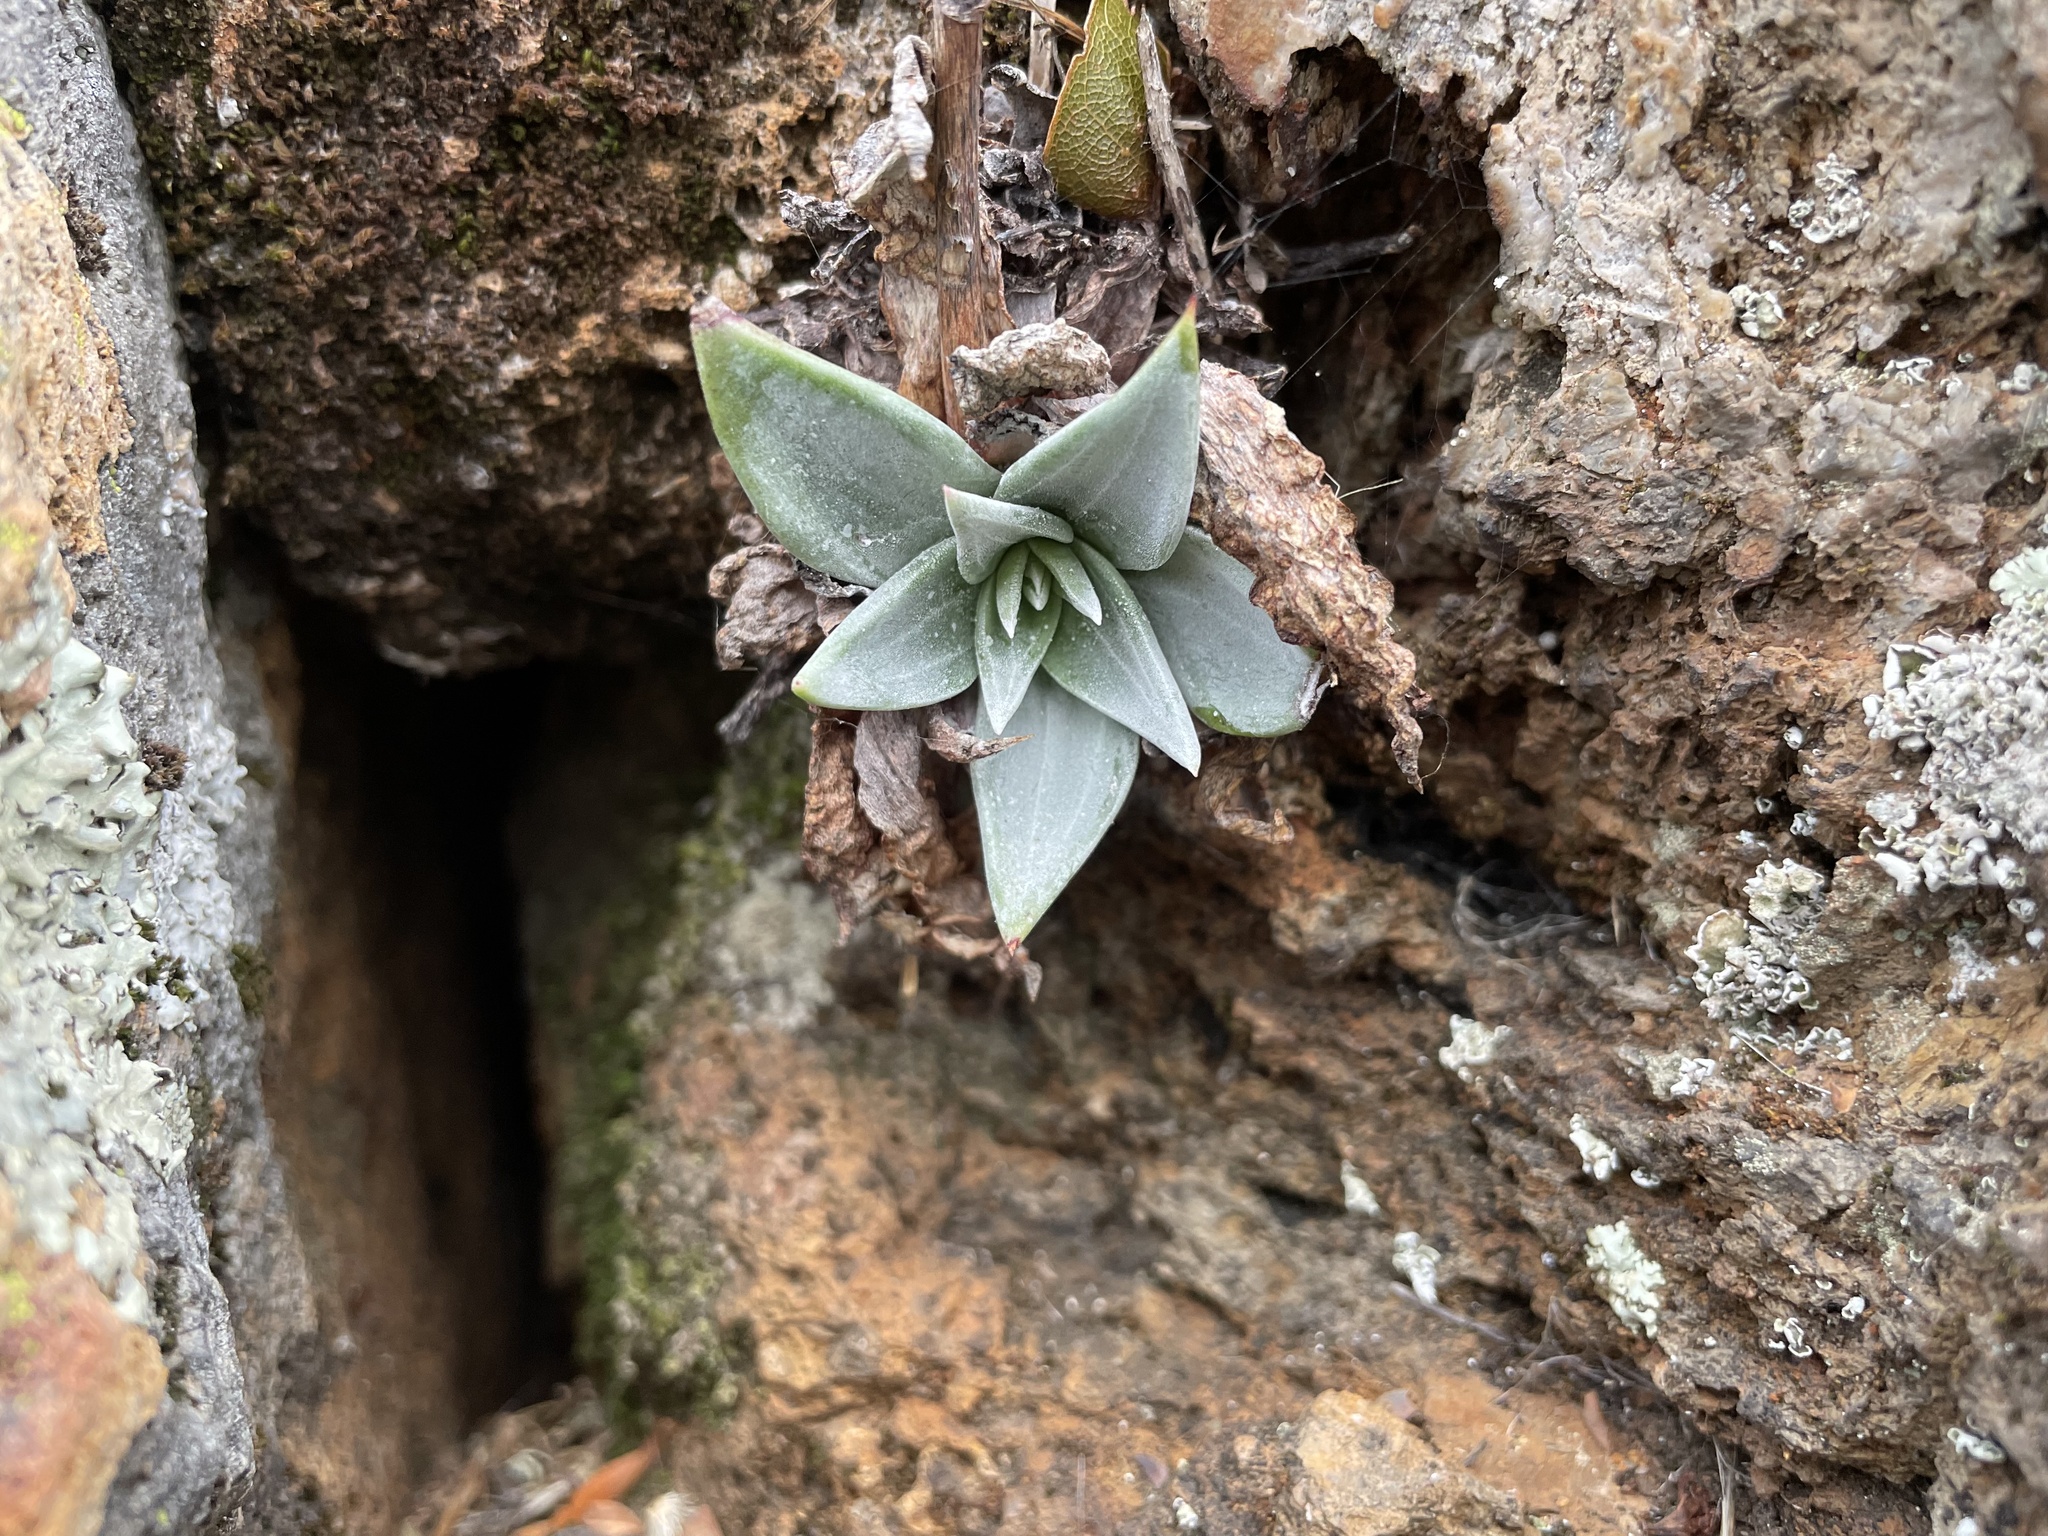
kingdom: Plantae
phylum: Tracheophyta
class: Magnoliopsida
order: Saxifragales
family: Crassulaceae
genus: Dudleya
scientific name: Dudleya cymosa
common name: Canyon dudleya
